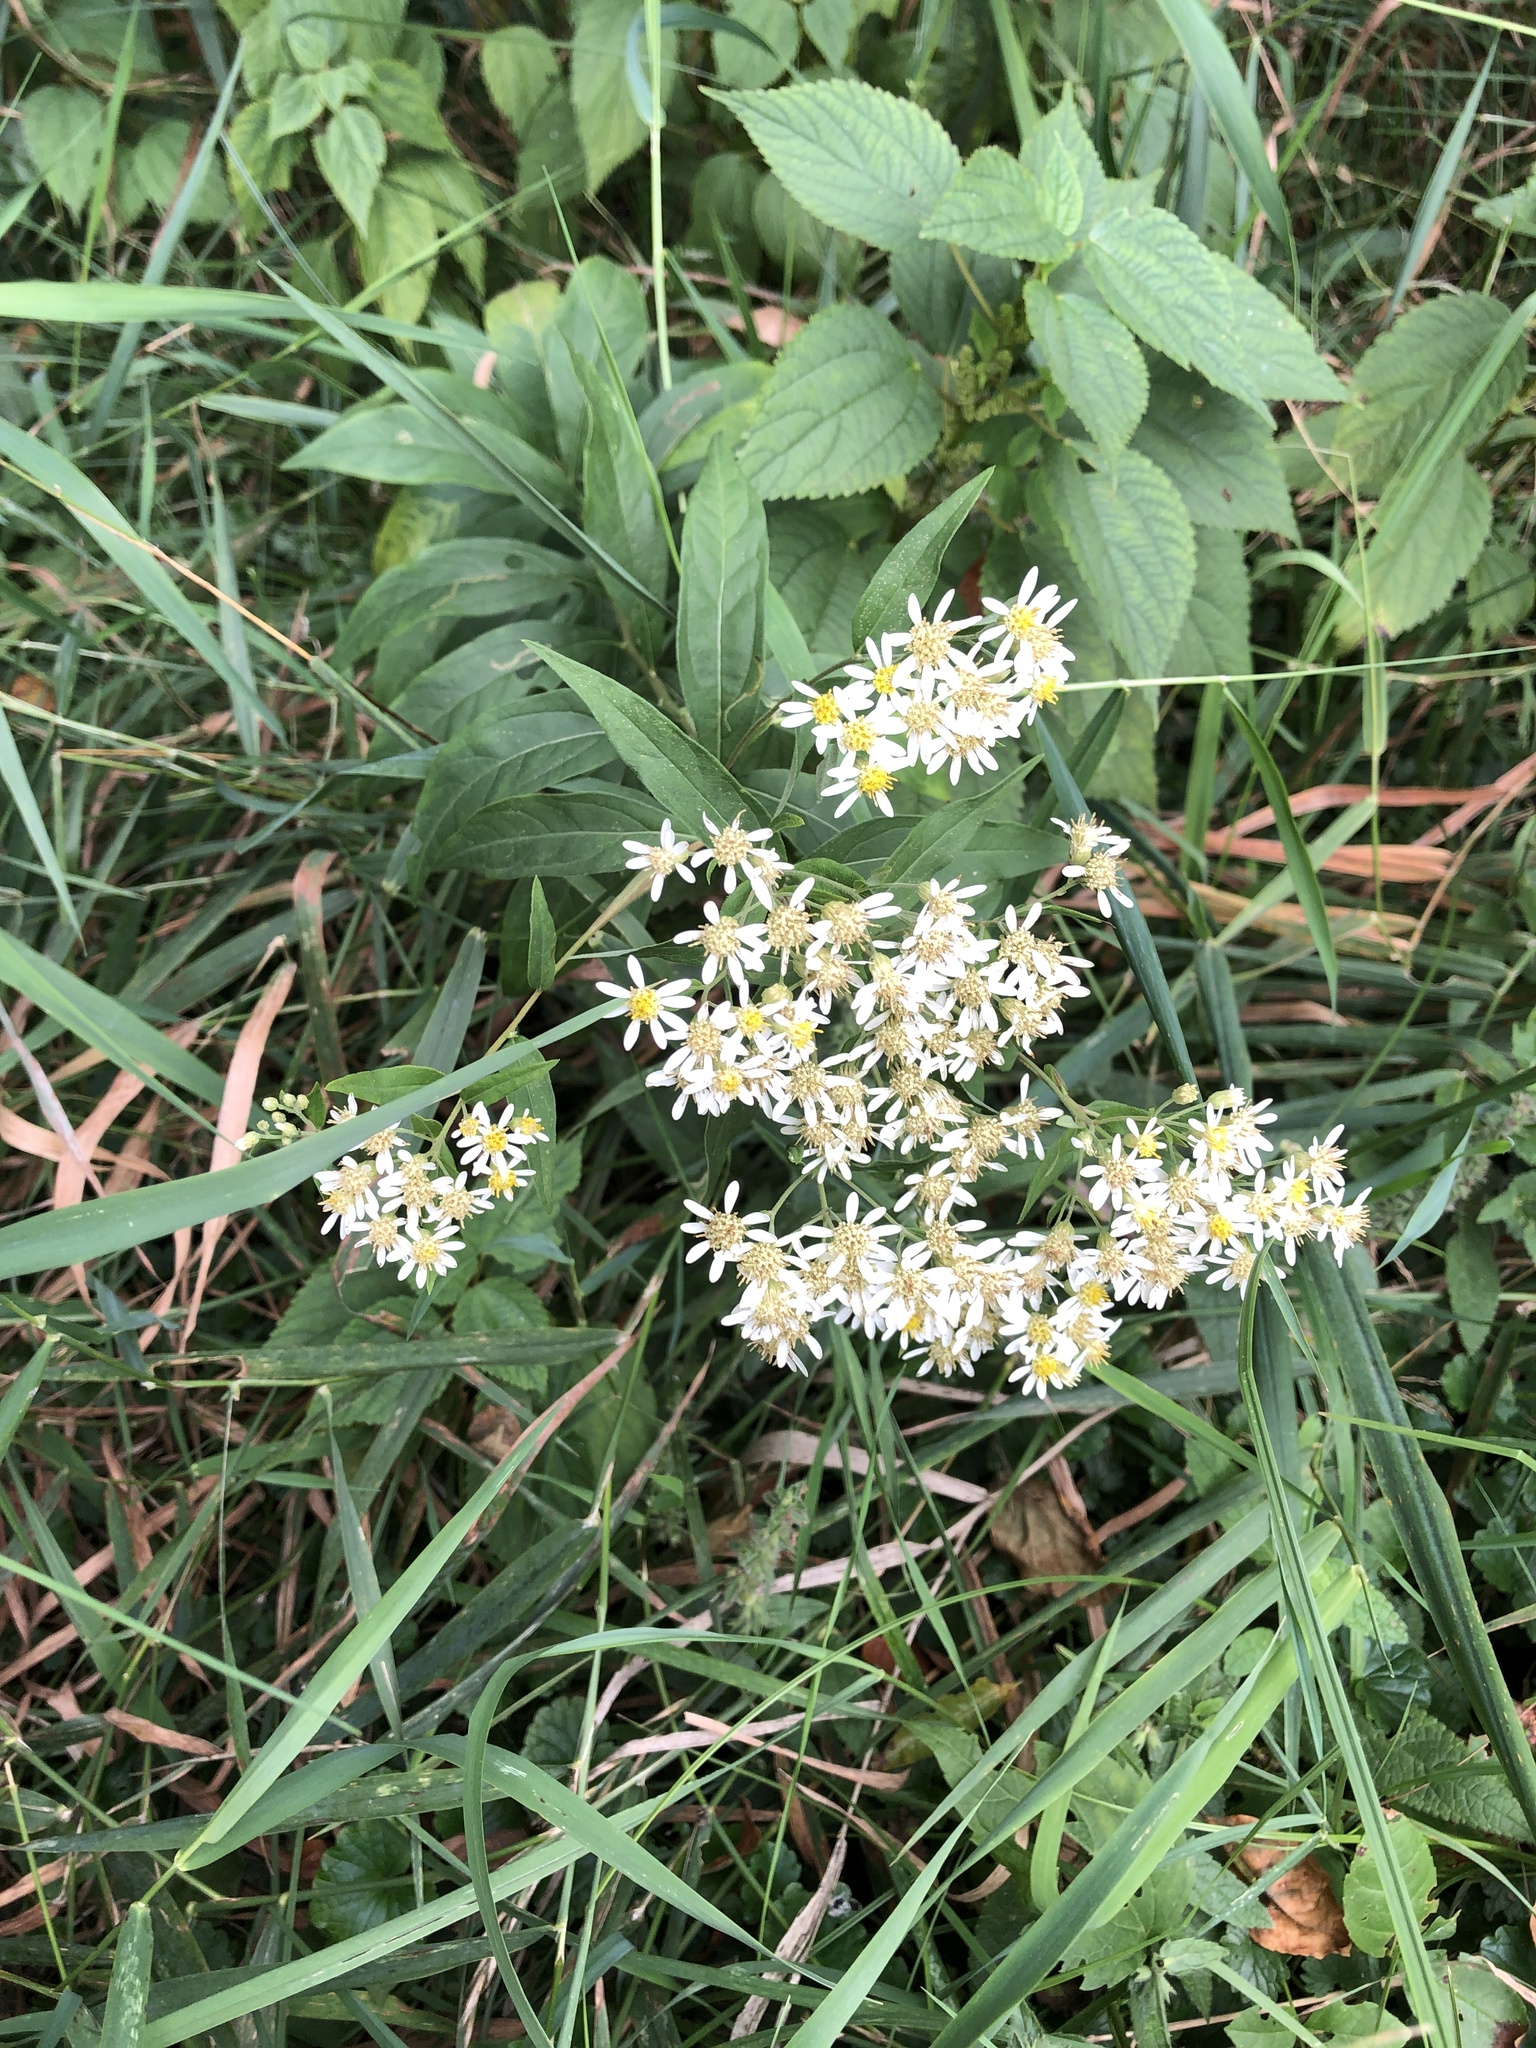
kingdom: Plantae
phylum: Tracheophyta
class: Magnoliopsida
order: Asterales
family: Asteraceae
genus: Doellingeria
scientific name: Doellingeria umbellata
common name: Flat-top white aster
